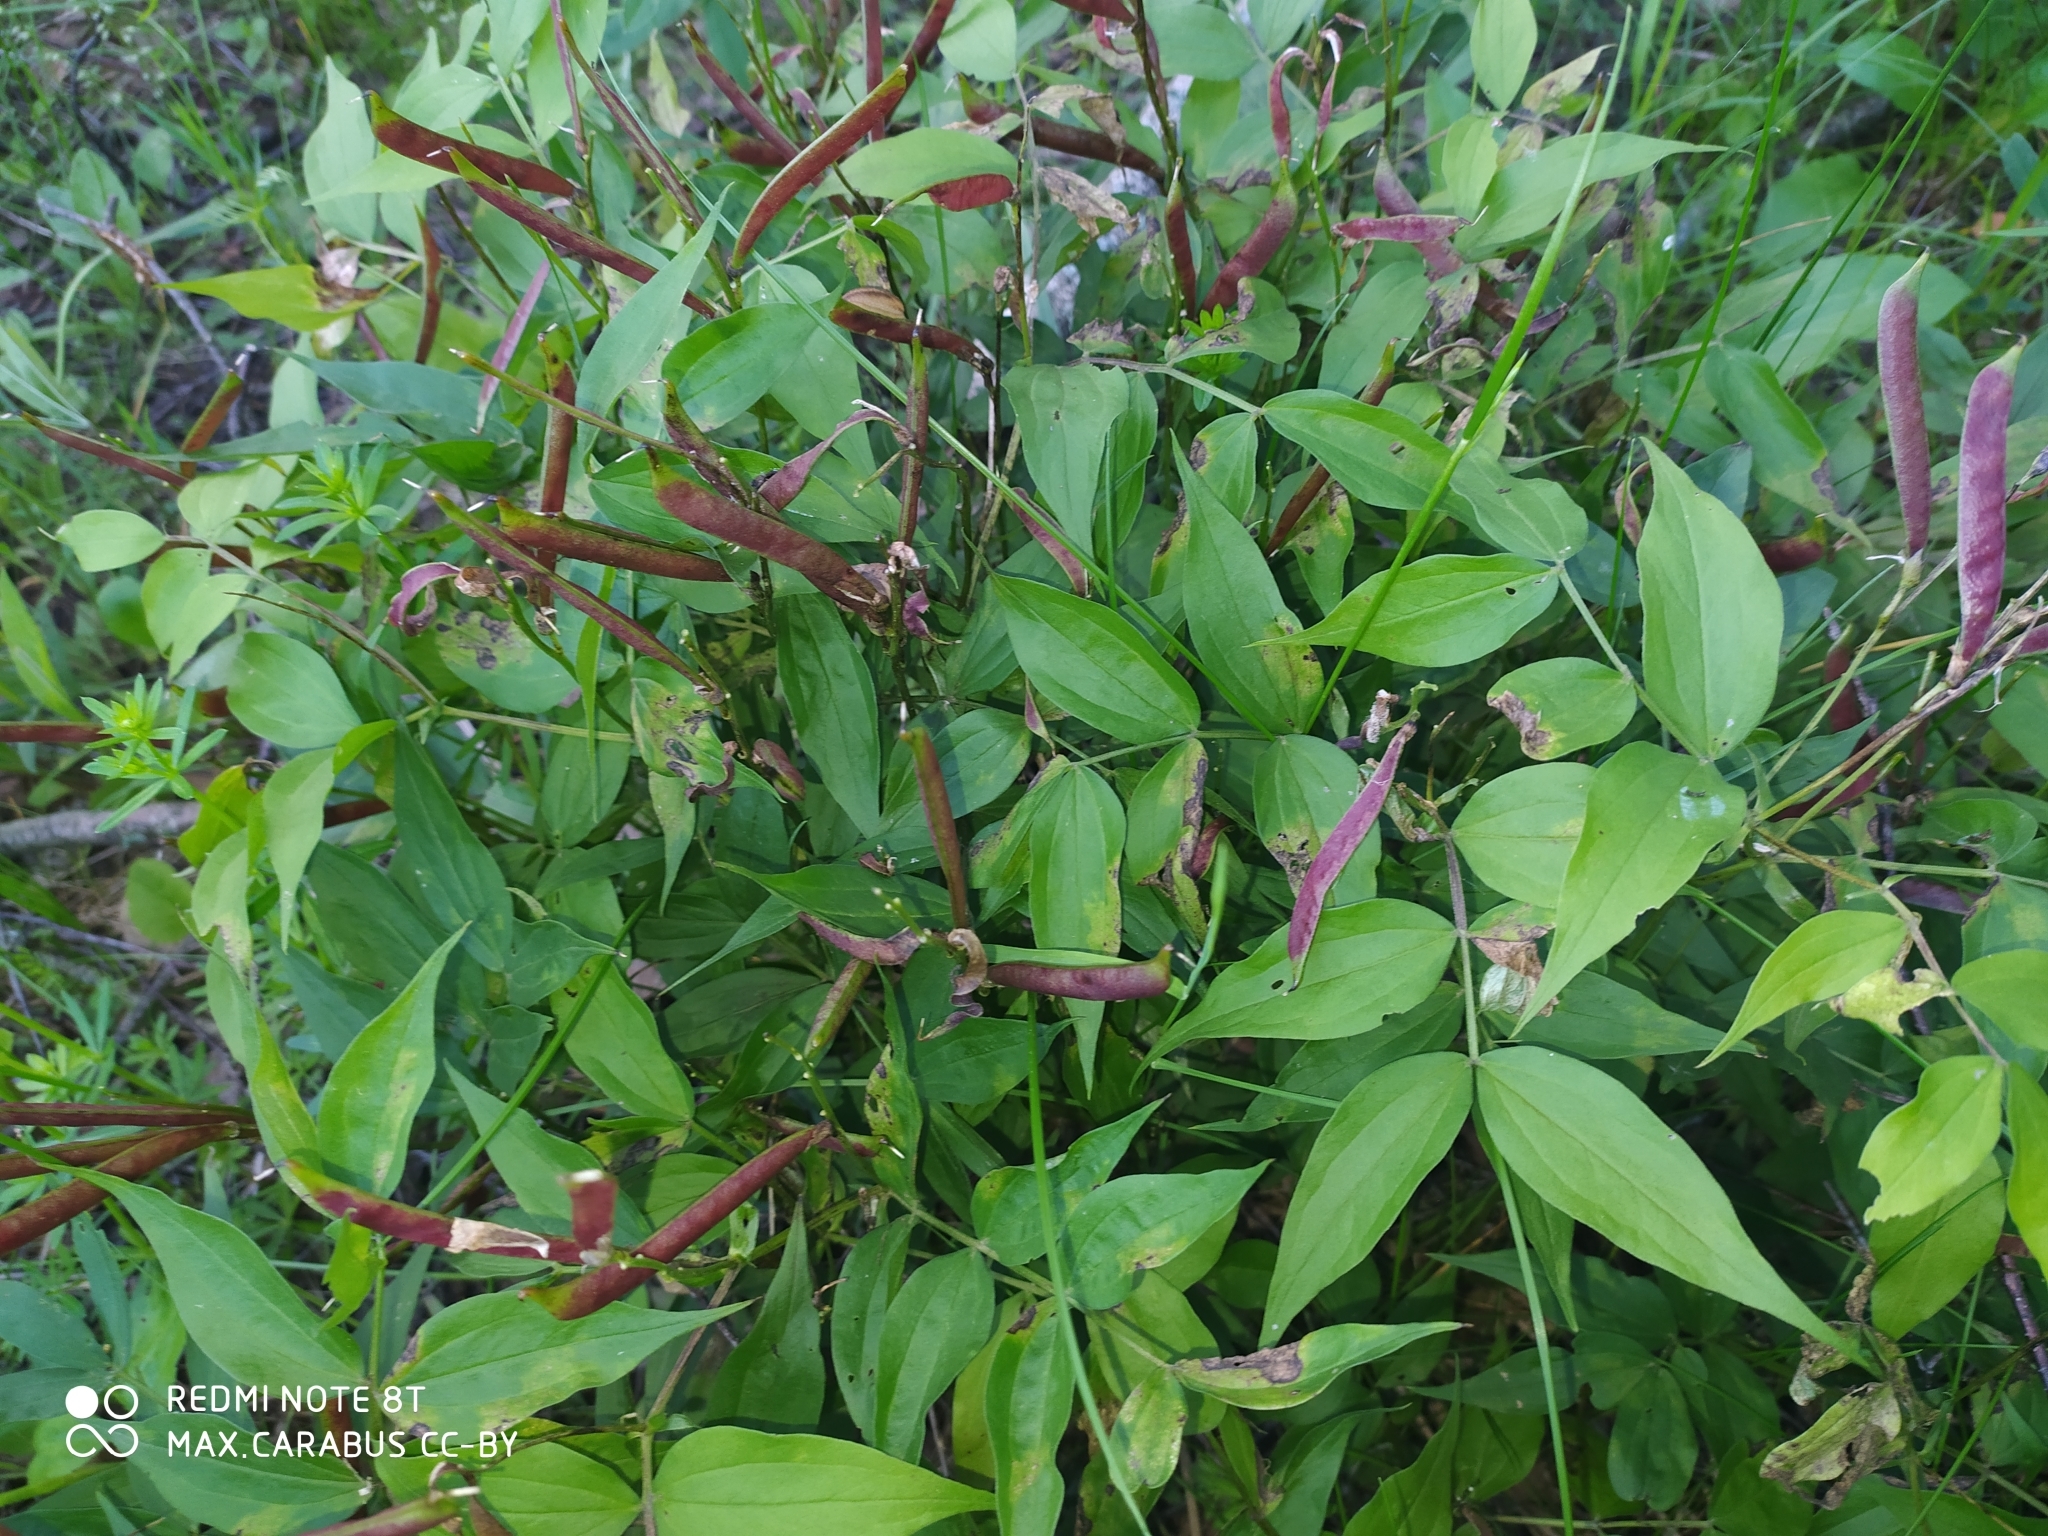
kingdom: Plantae
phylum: Tracheophyta
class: Magnoliopsida
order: Fabales
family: Fabaceae
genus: Lathyrus
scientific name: Lathyrus vernus
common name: Spring pea
